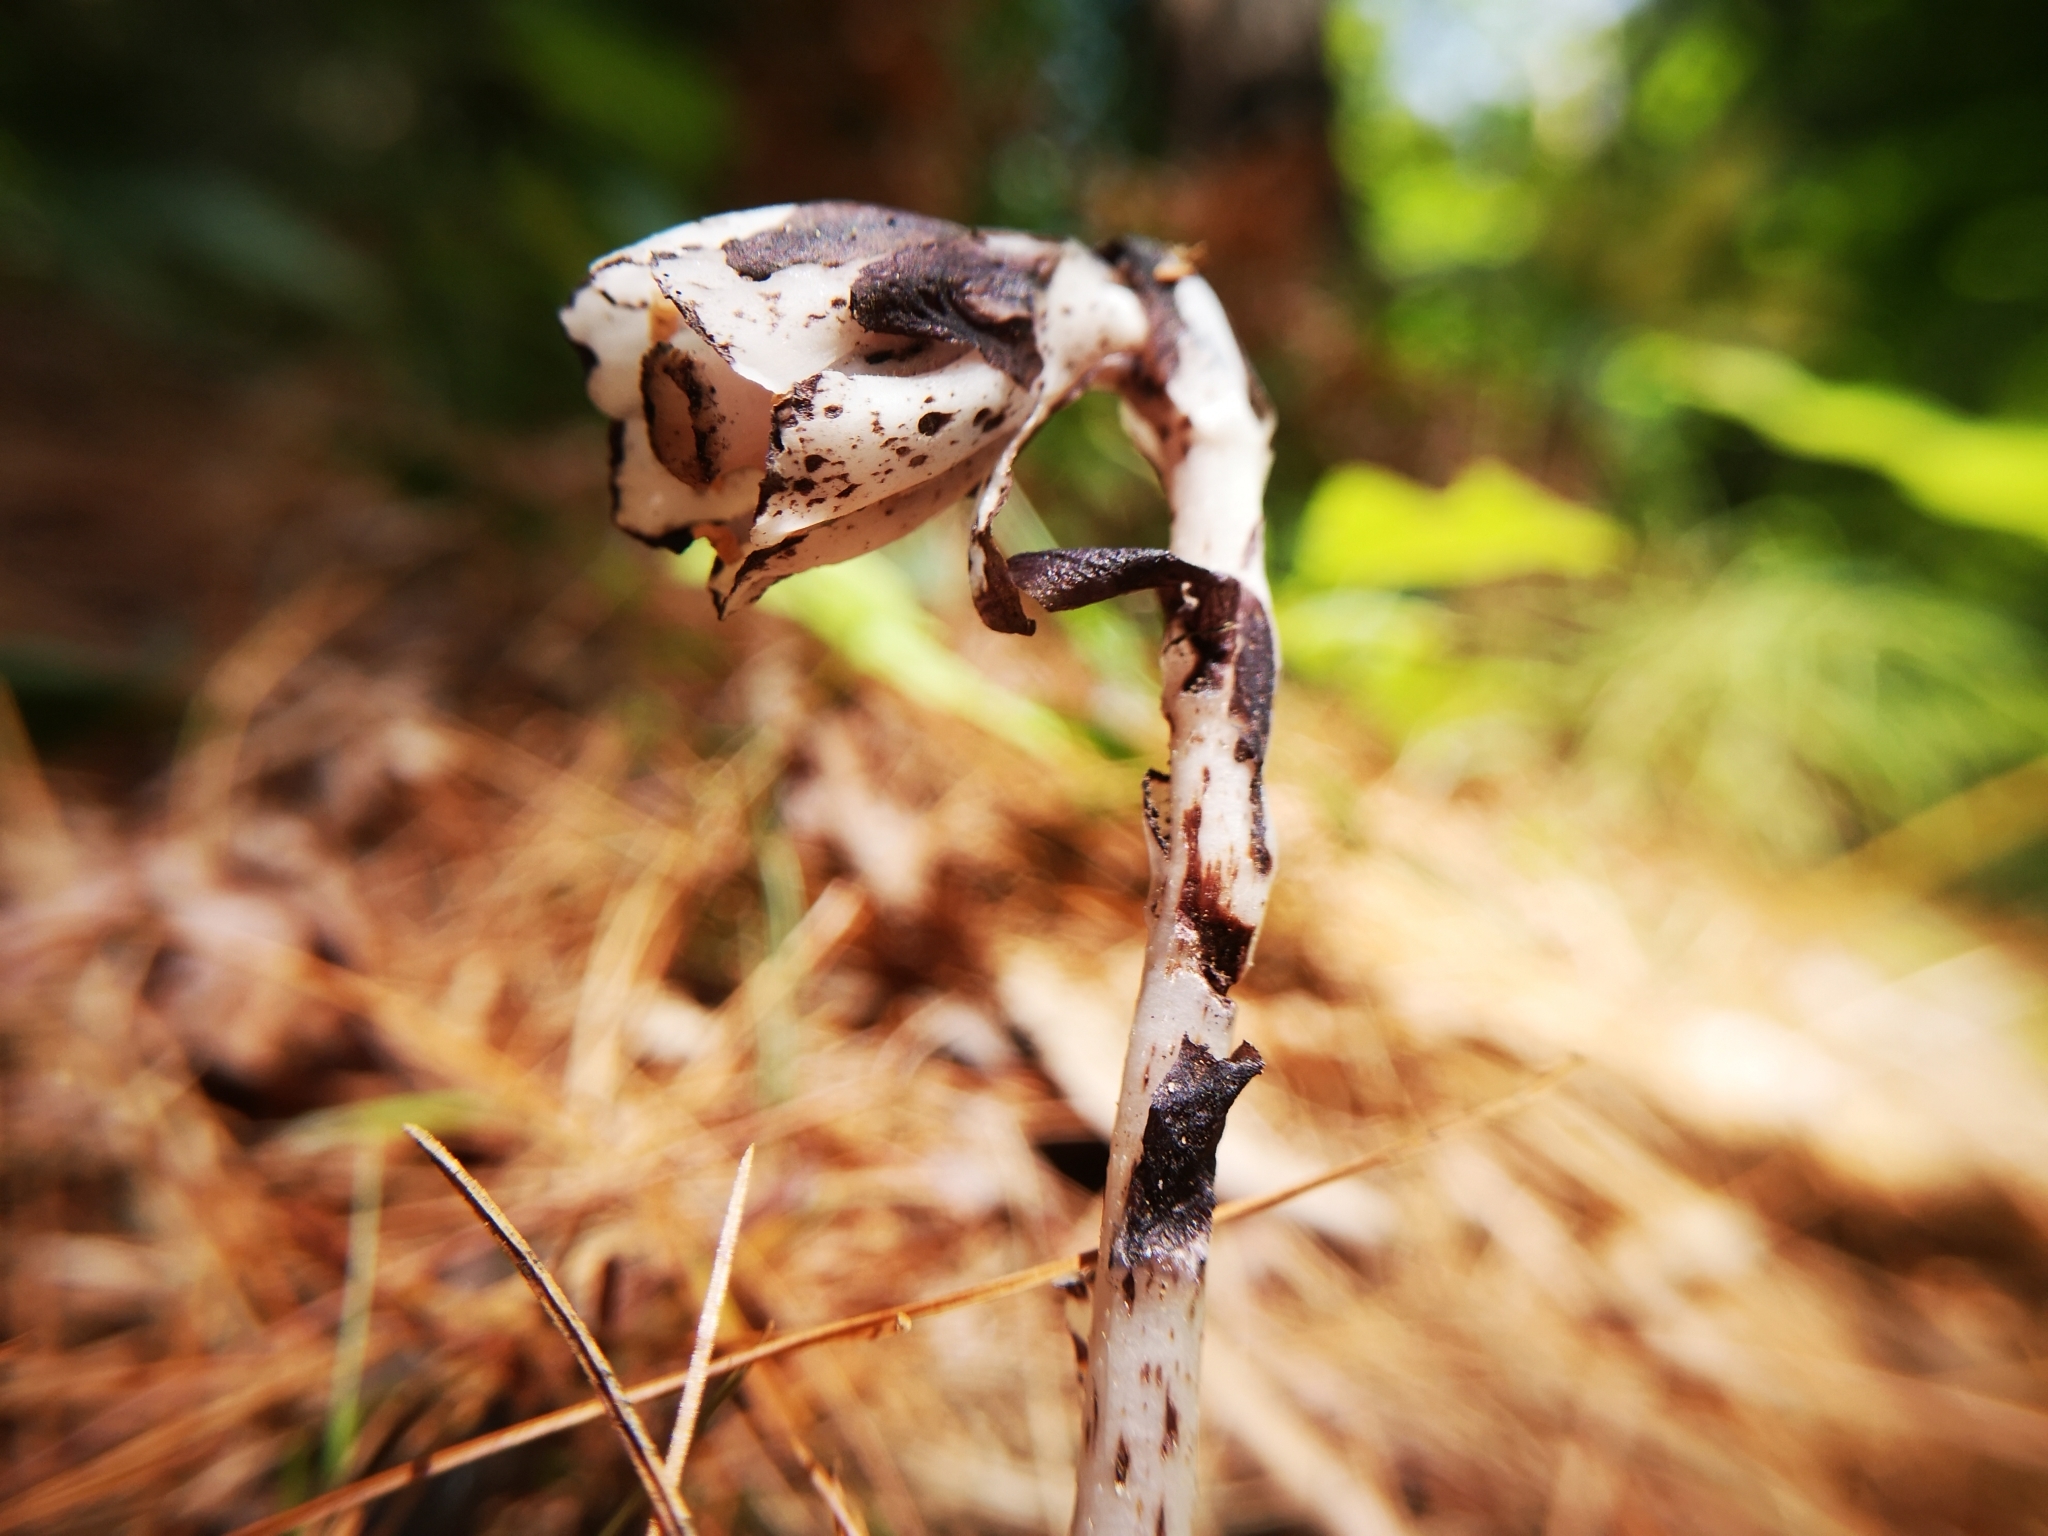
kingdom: Plantae
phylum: Tracheophyta
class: Magnoliopsida
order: Ericales
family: Ericaceae
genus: Monotropa
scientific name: Monotropa uniflora
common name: Convulsion root
